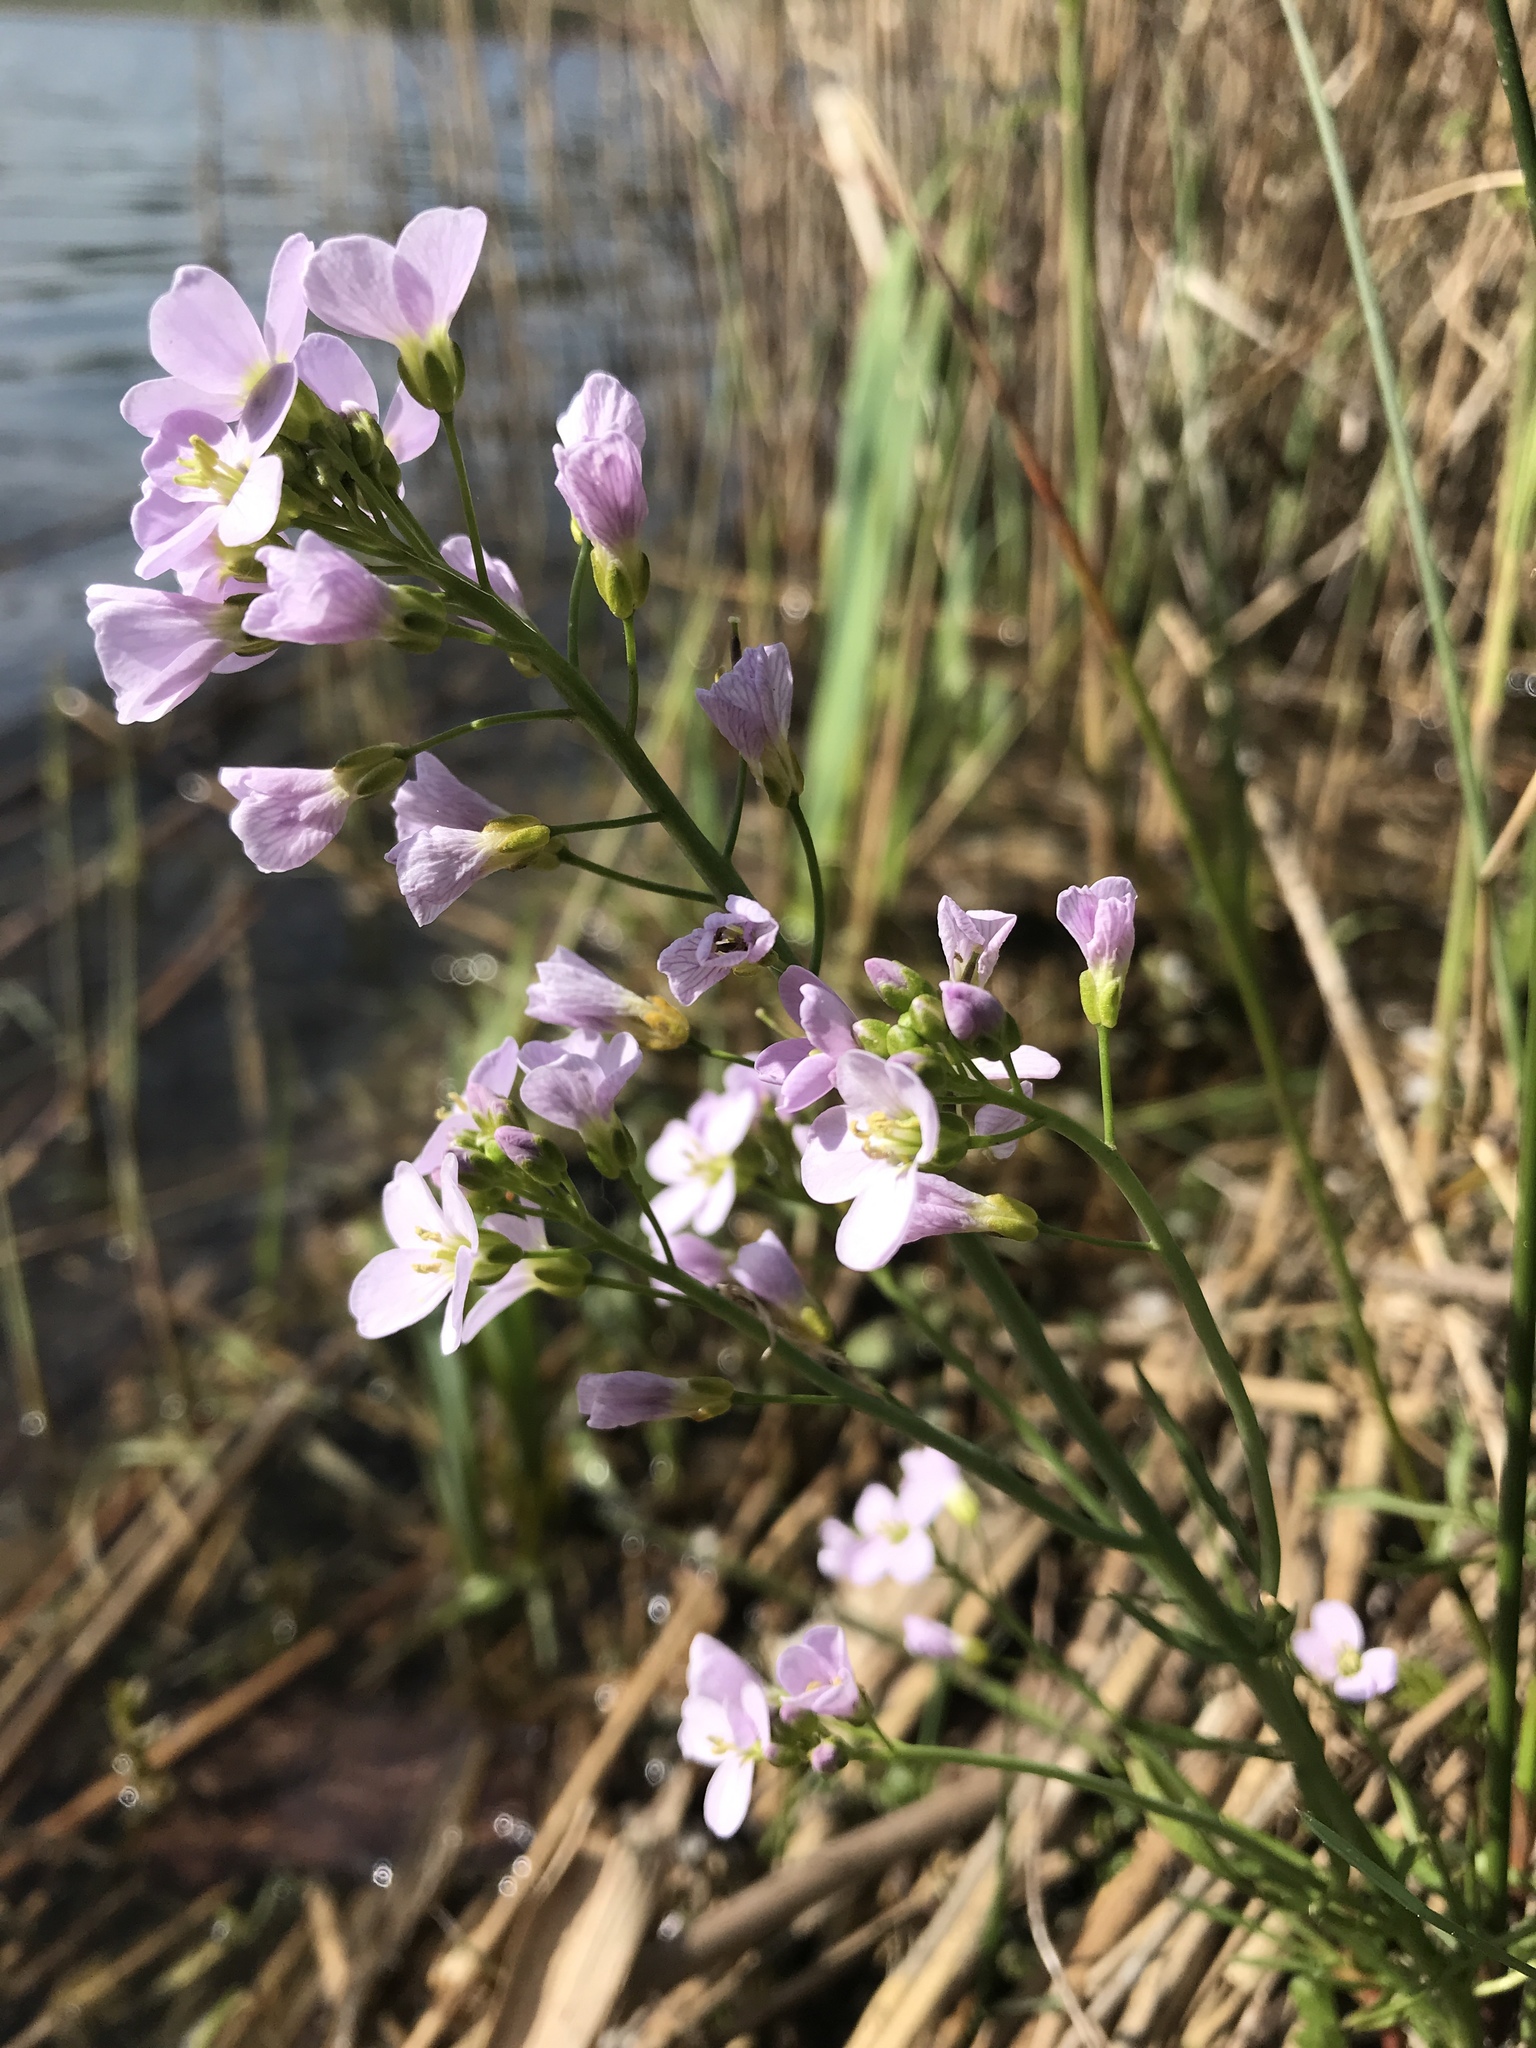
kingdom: Plantae
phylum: Tracheophyta
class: Magnoliopsida
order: Brassicales
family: Brassicaceae
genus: Cardamine
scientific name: Cardamine pratensis
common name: Cuckoo flower
